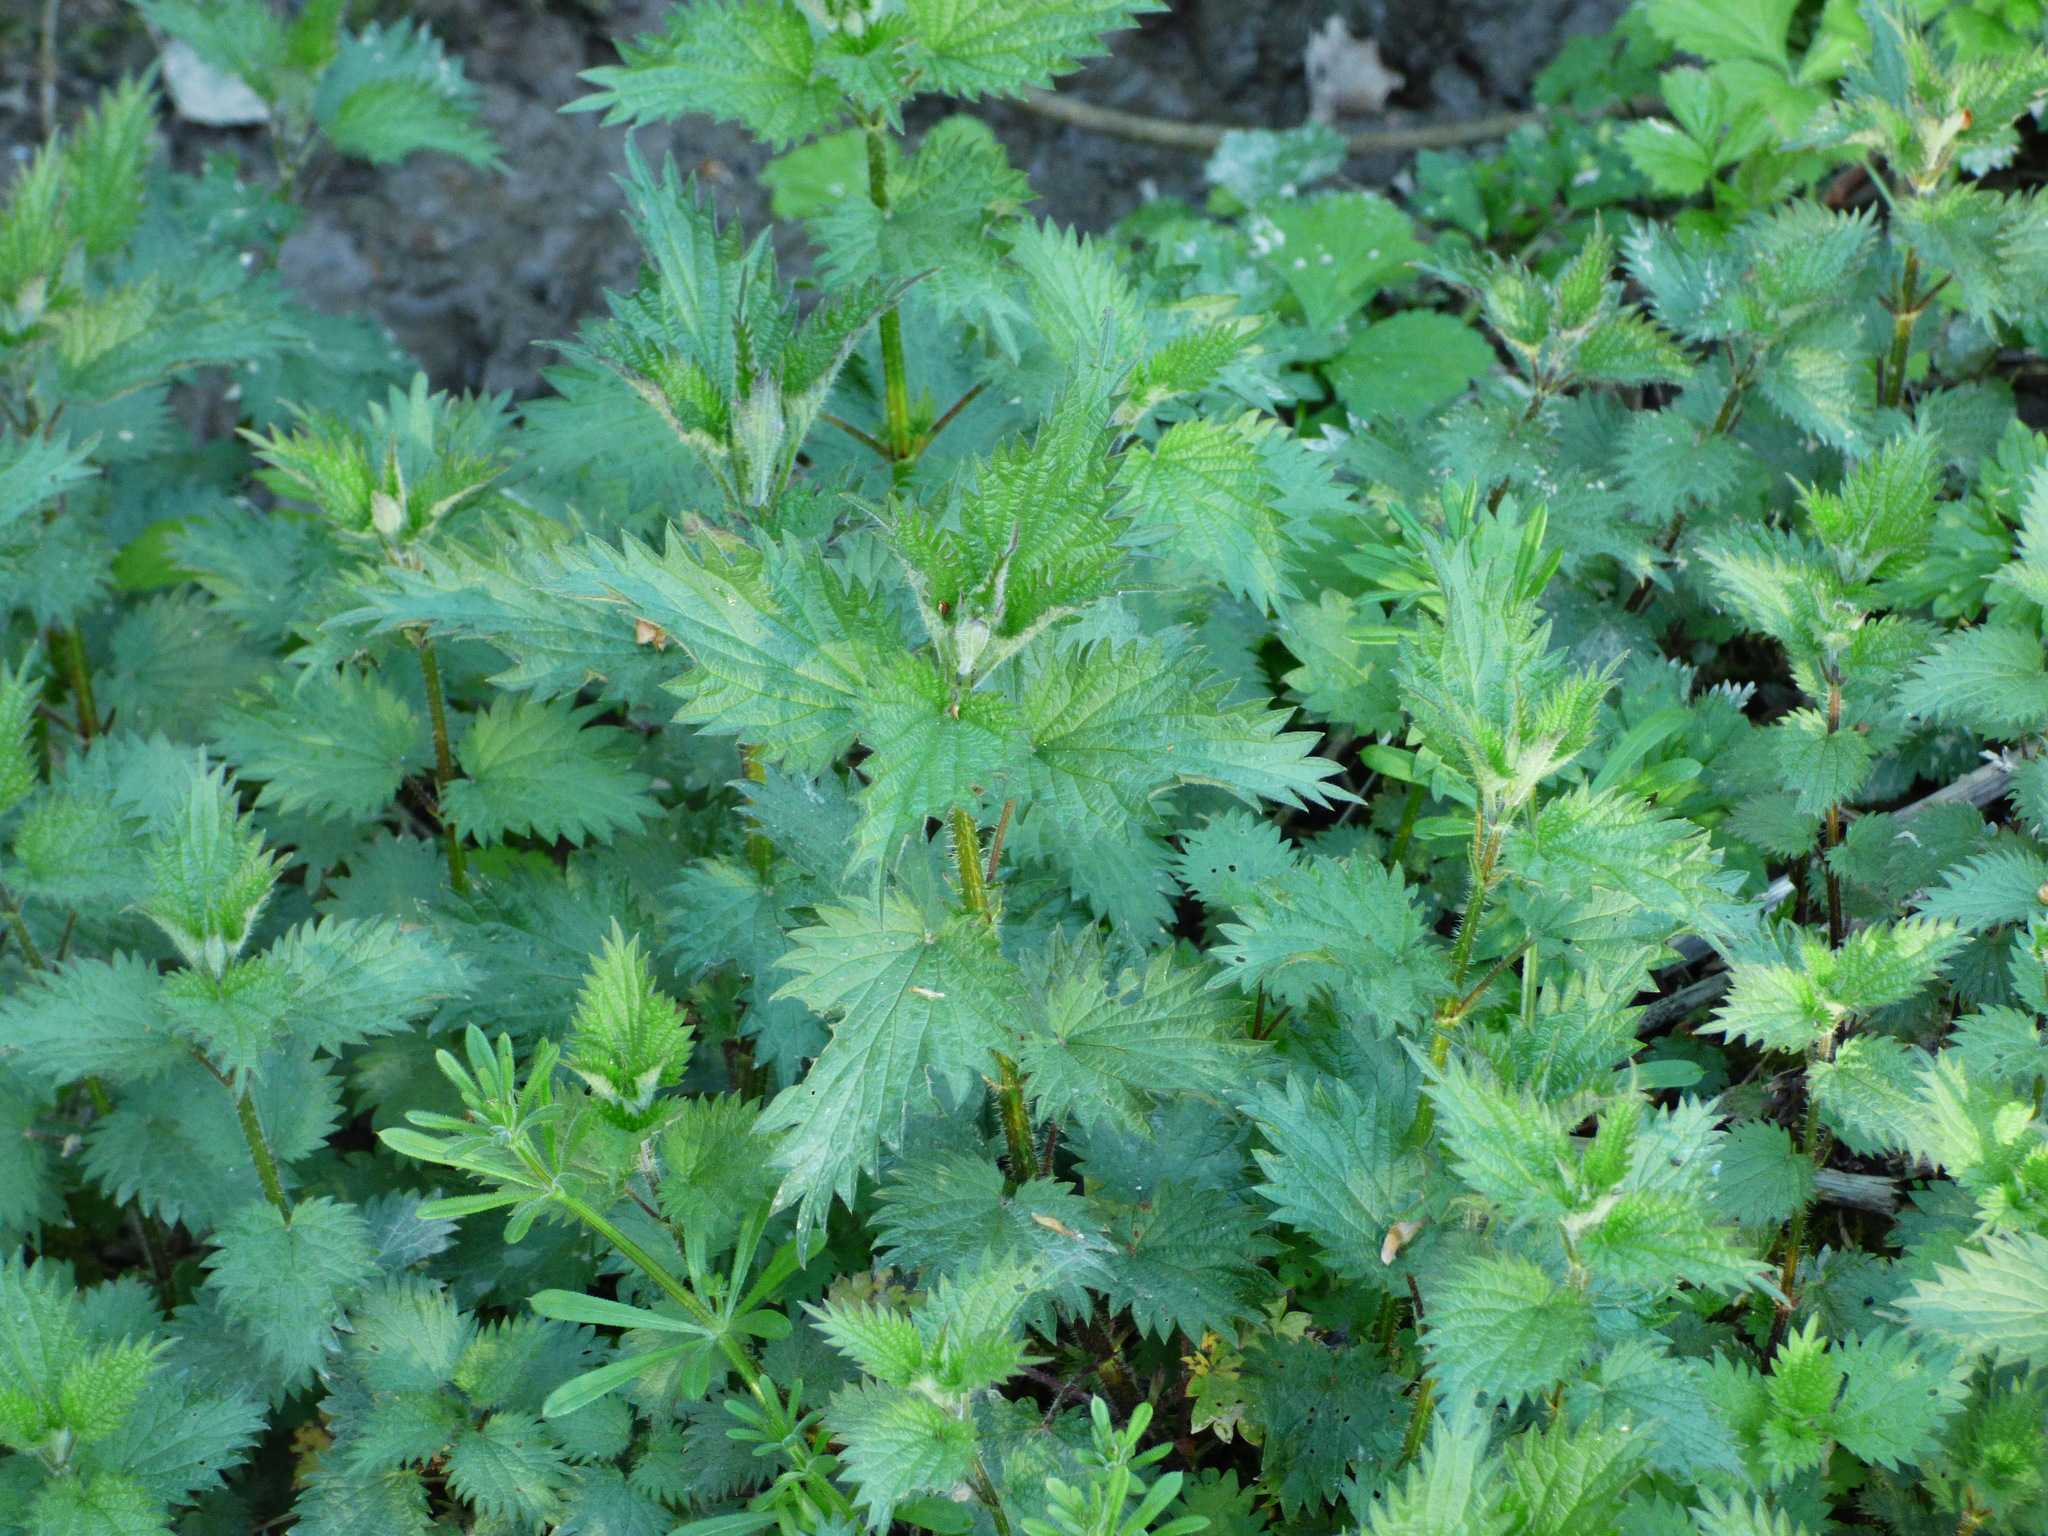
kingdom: Plantae
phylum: Tracheophyta
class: Magnoliopsida
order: Rosales
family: Urticaceae
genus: Urtica
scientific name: Urtica dioica
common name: Common nettle
